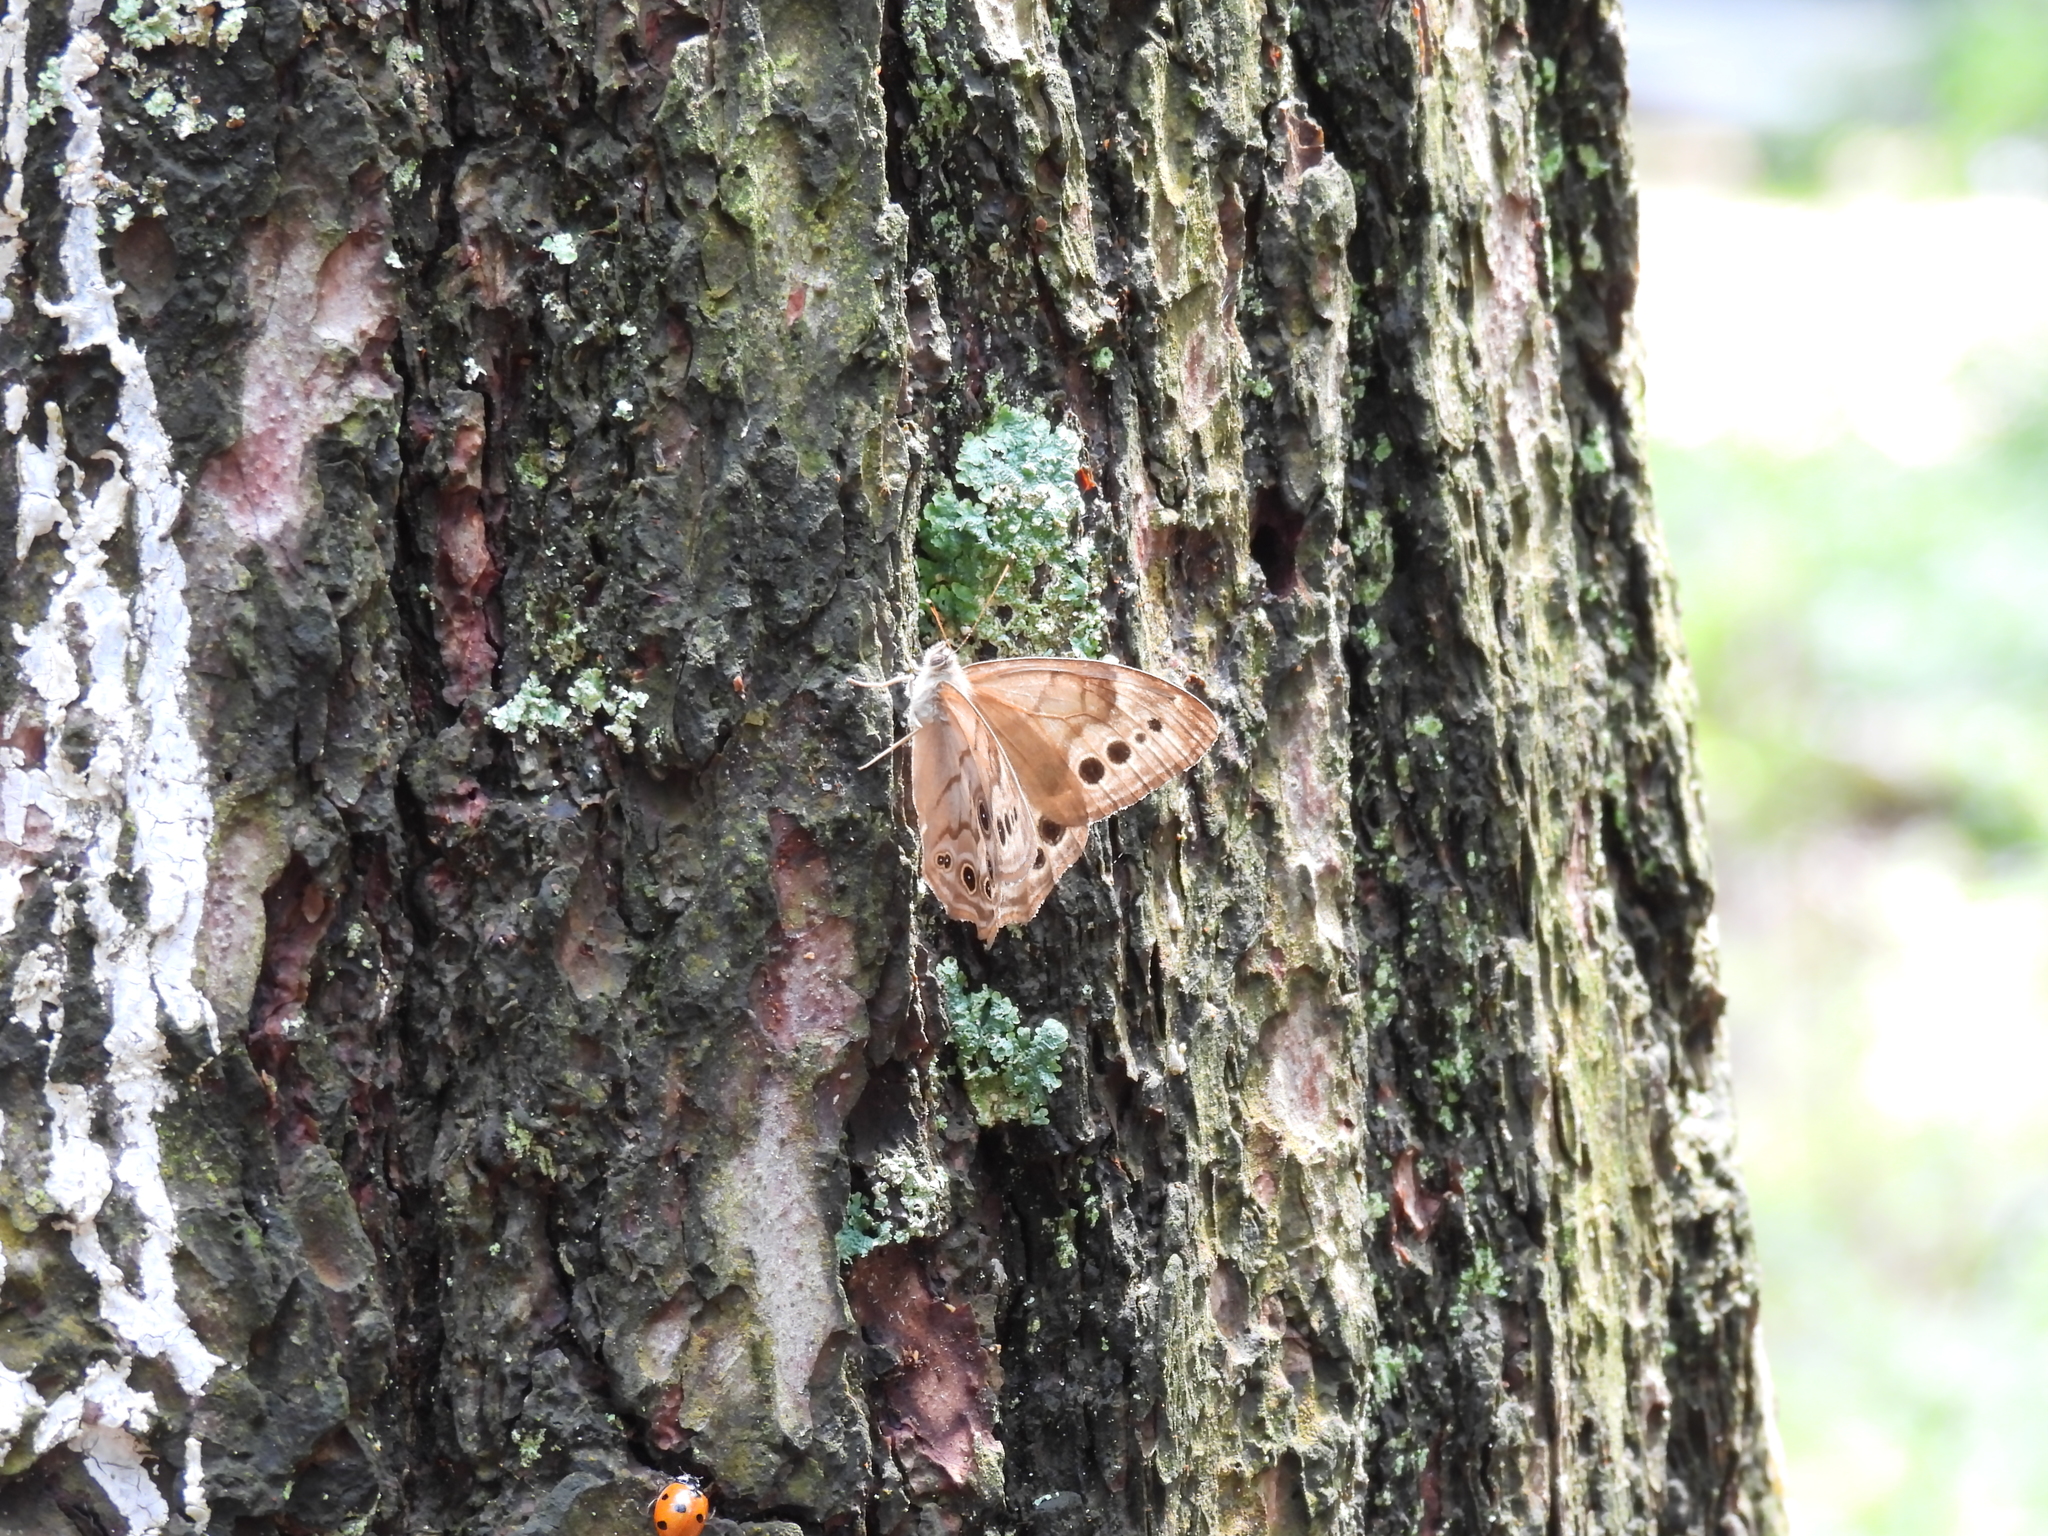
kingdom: Animalia
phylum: Arthropoda
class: Insecta
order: Lepidoptera
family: Nymphalidae
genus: Lethe
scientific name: Lethe anthedon
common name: Northern pearly-eye
